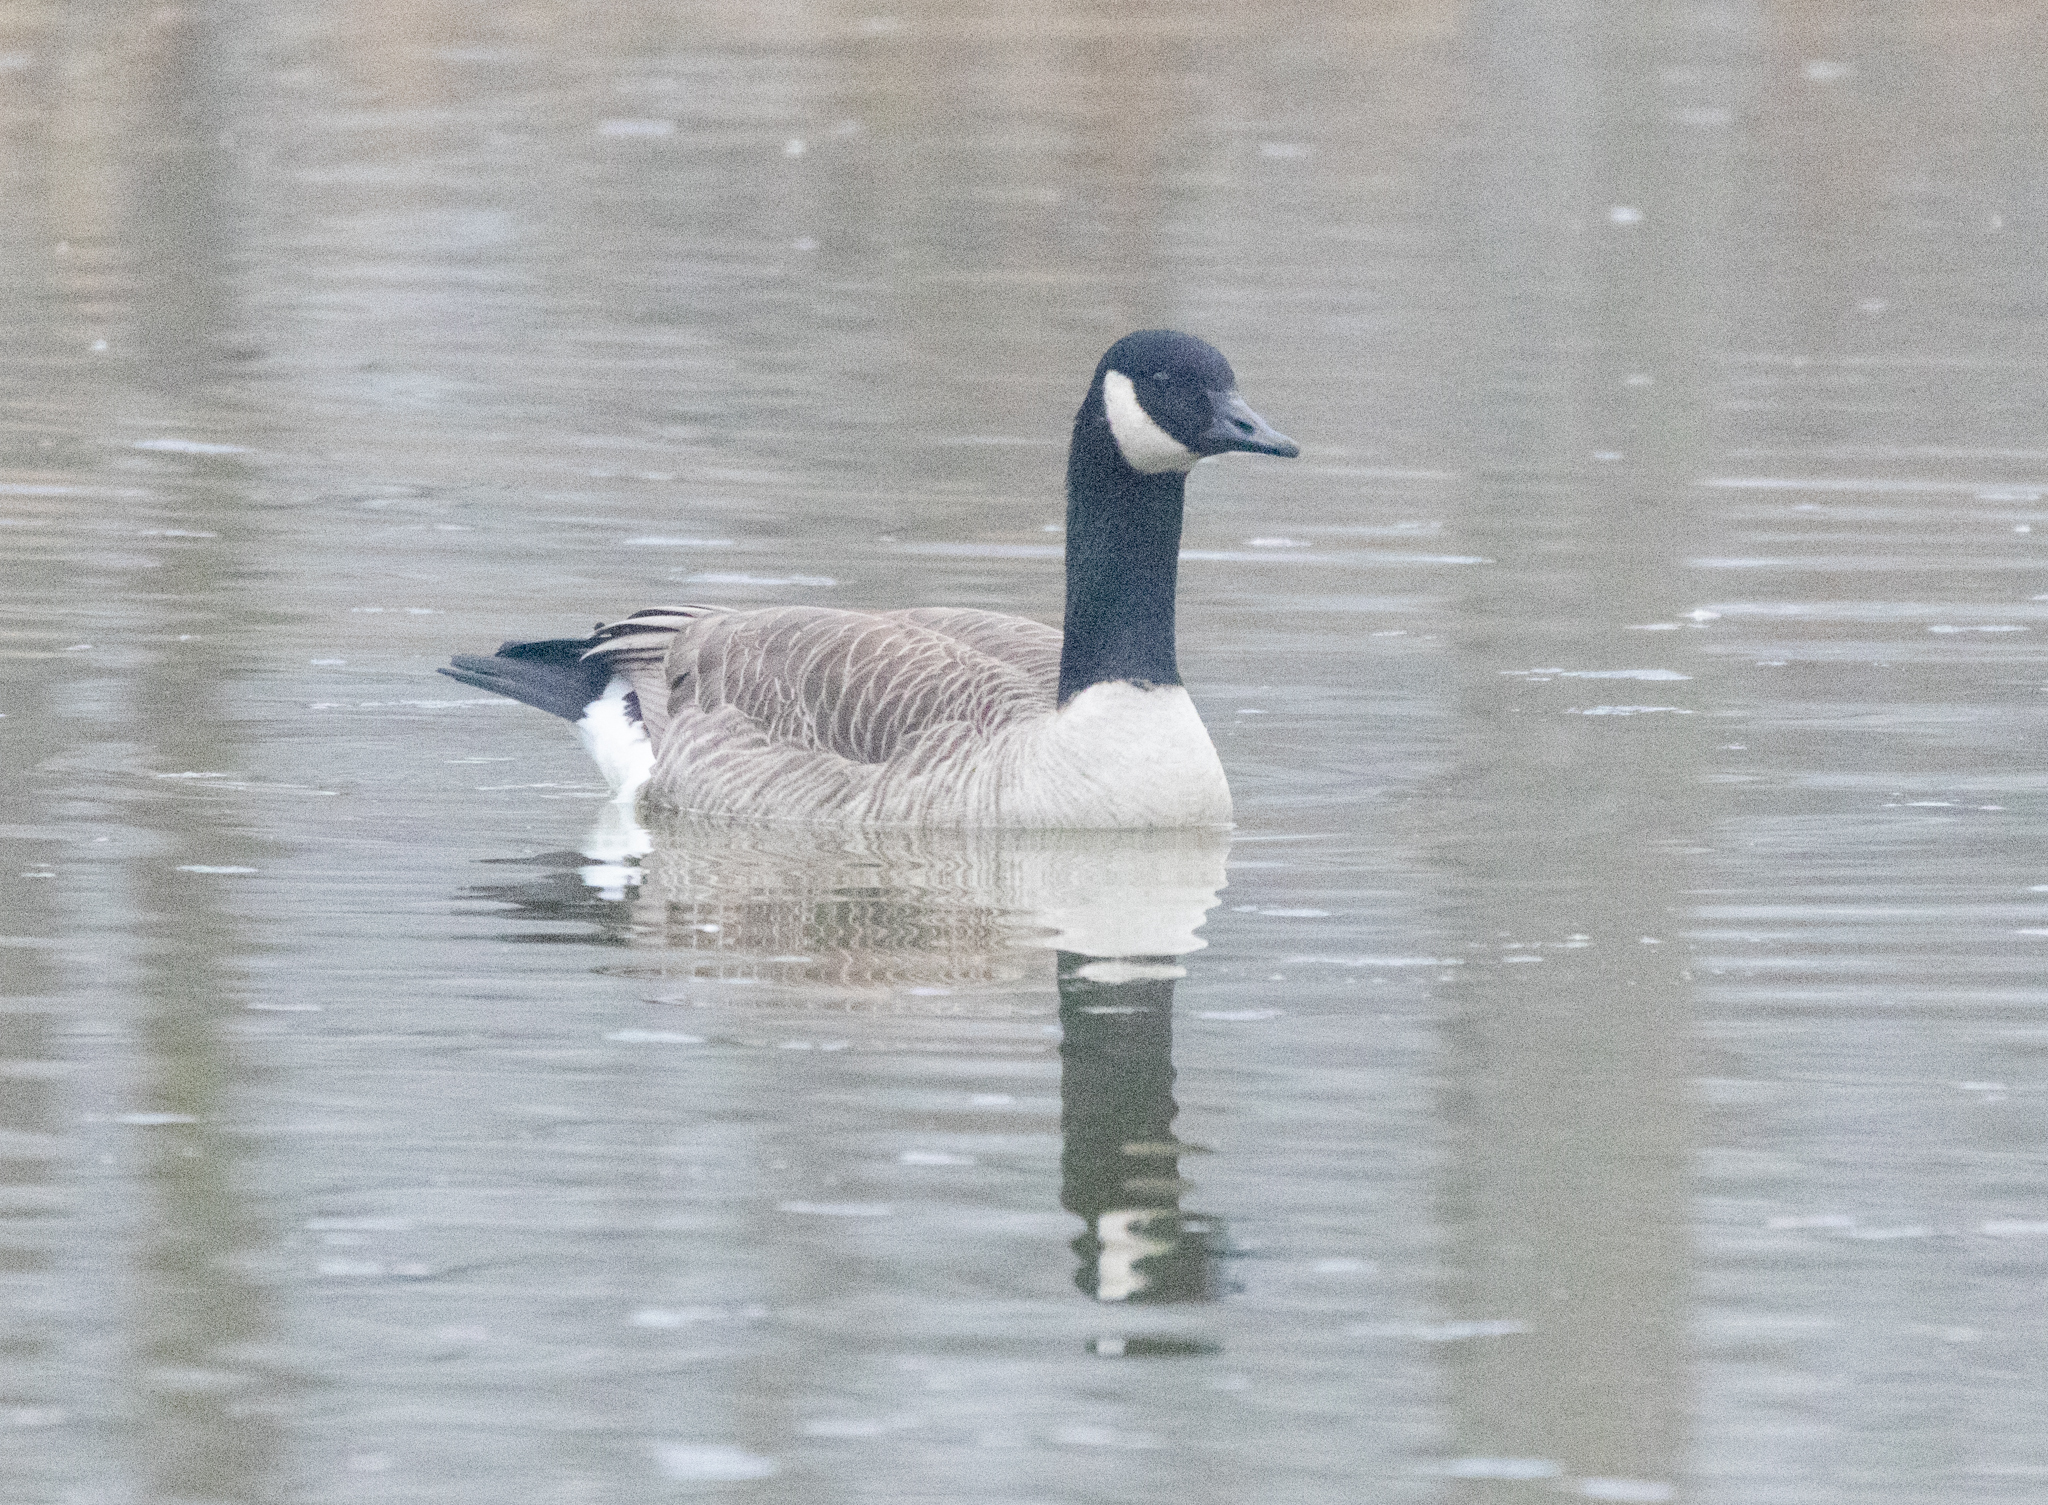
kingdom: Animalia
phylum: Chordata
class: Aves
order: Anseriformes
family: Anatidae
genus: Branta
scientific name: Branta canadensis
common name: Canada goose
